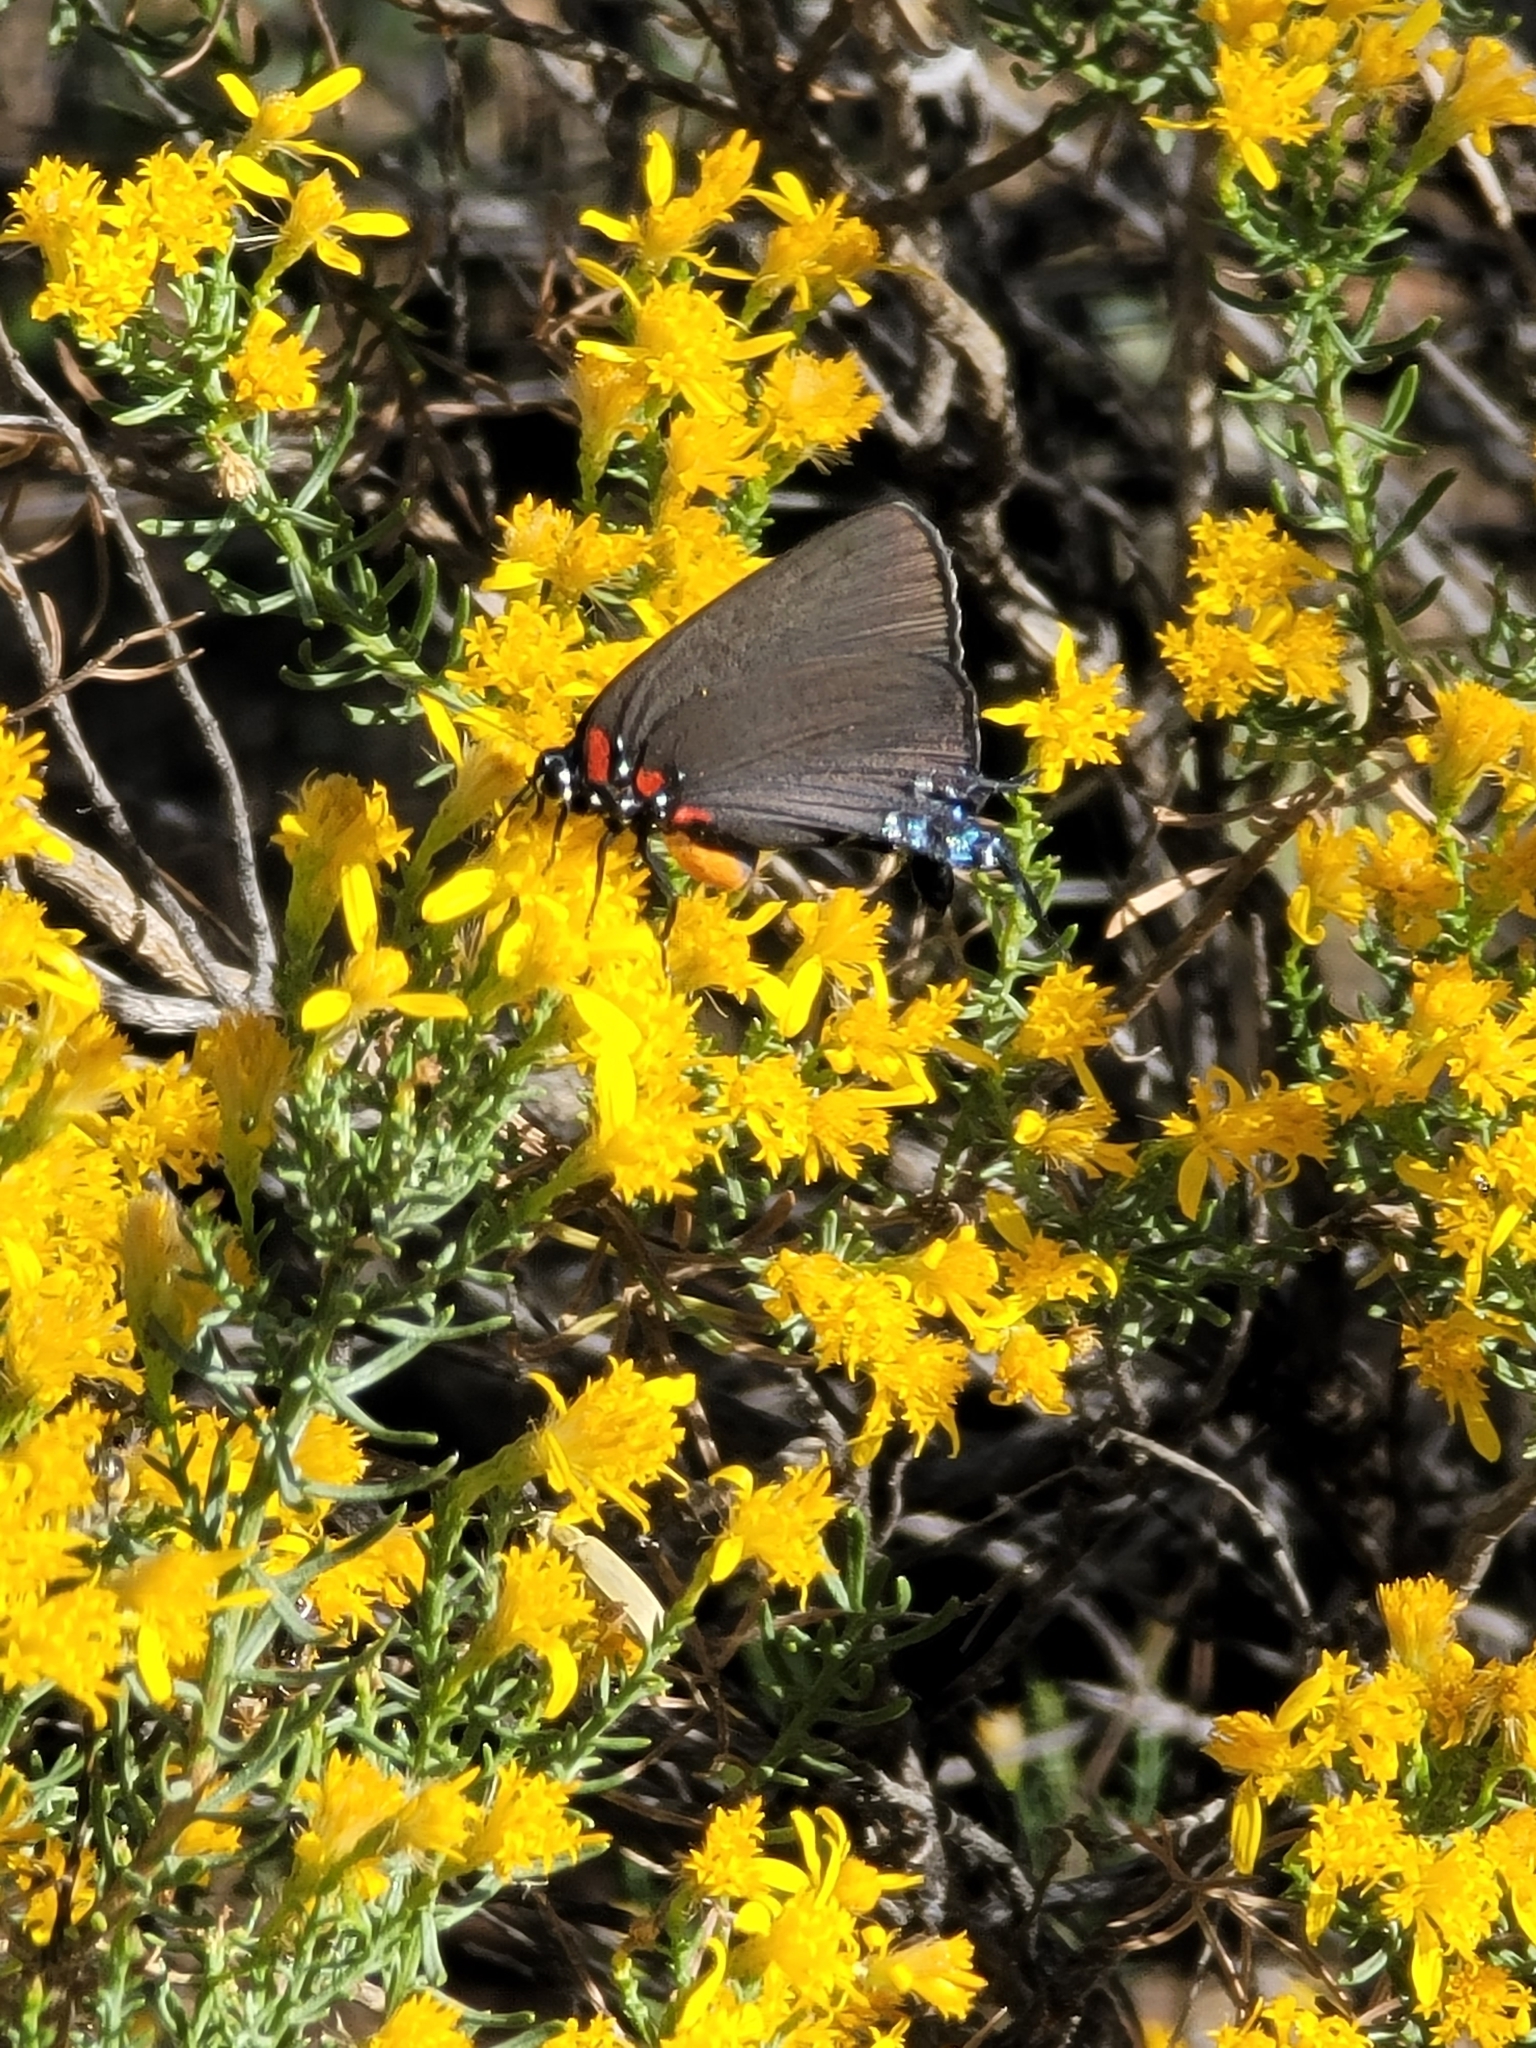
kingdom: Animalia
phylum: Arthropoda
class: Insecta
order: Lepidoptera
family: Lycaenidae
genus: Atlides
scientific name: Atlides halesus
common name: Great purple hairstreak
